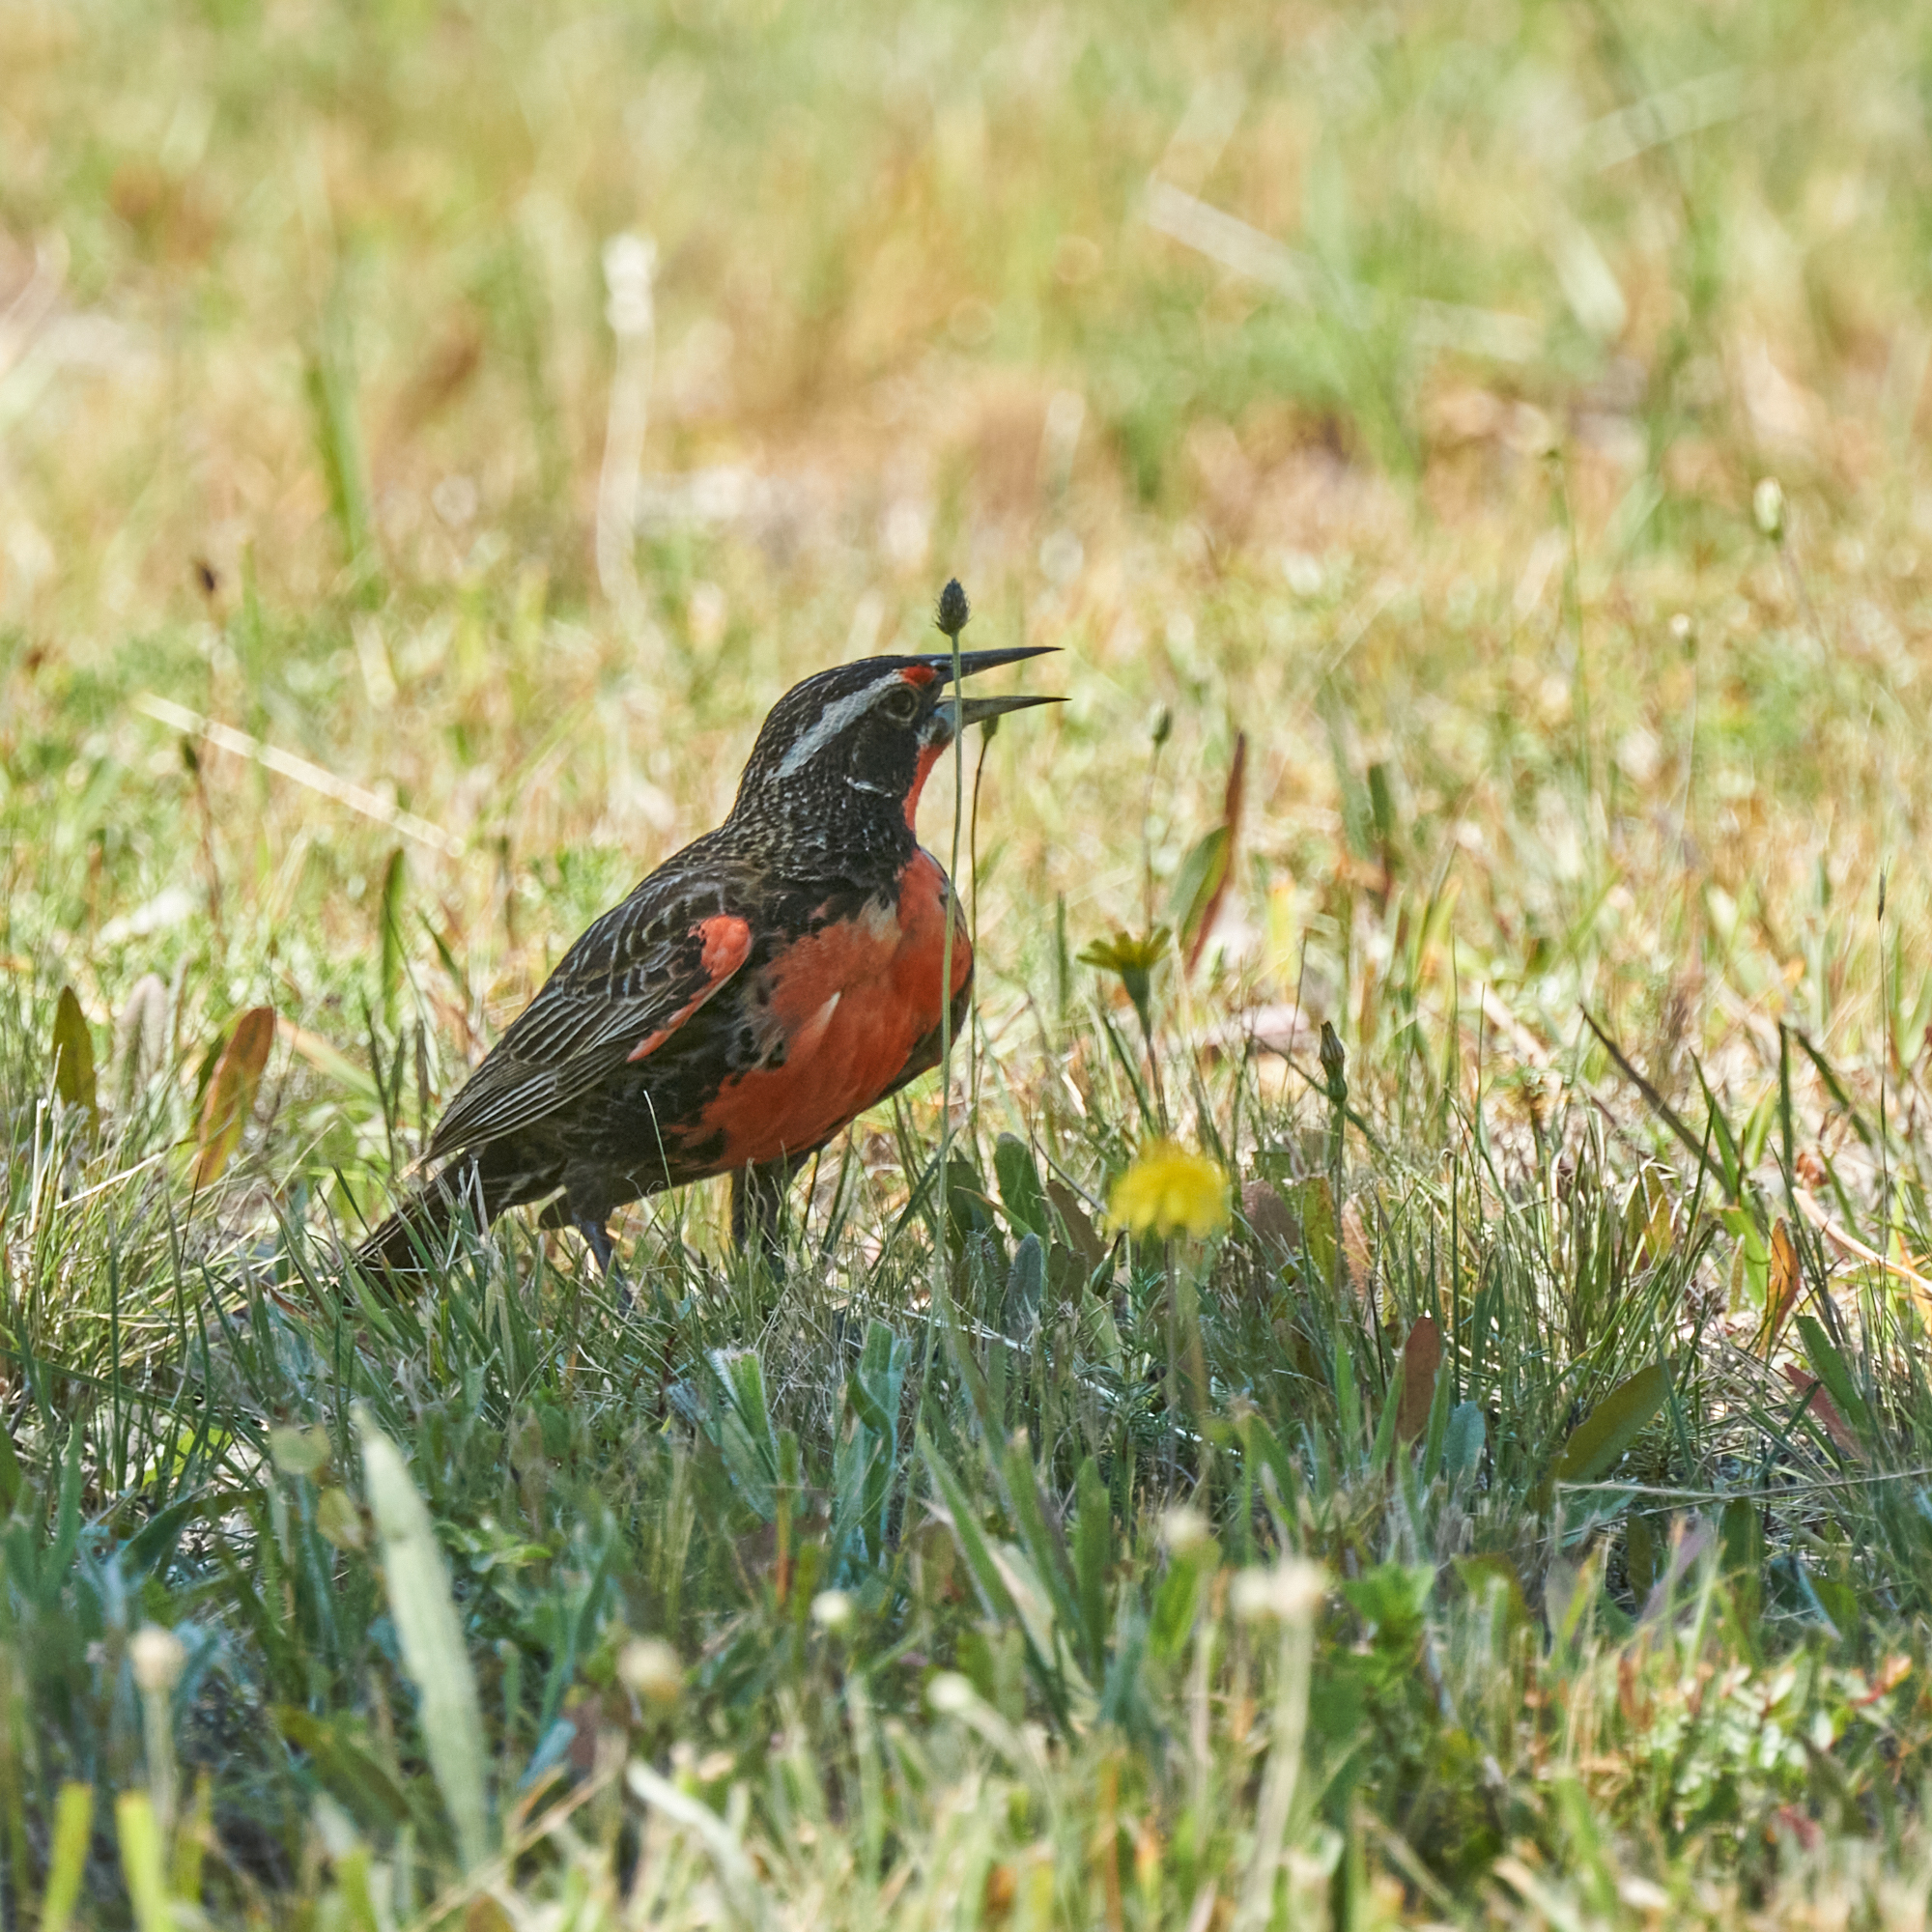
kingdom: Animalia
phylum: Chordata
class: Aves
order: Passeriformes
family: Icteridae
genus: Sturnella
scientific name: Sturnella loyca
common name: Long-tailed meadowlark
